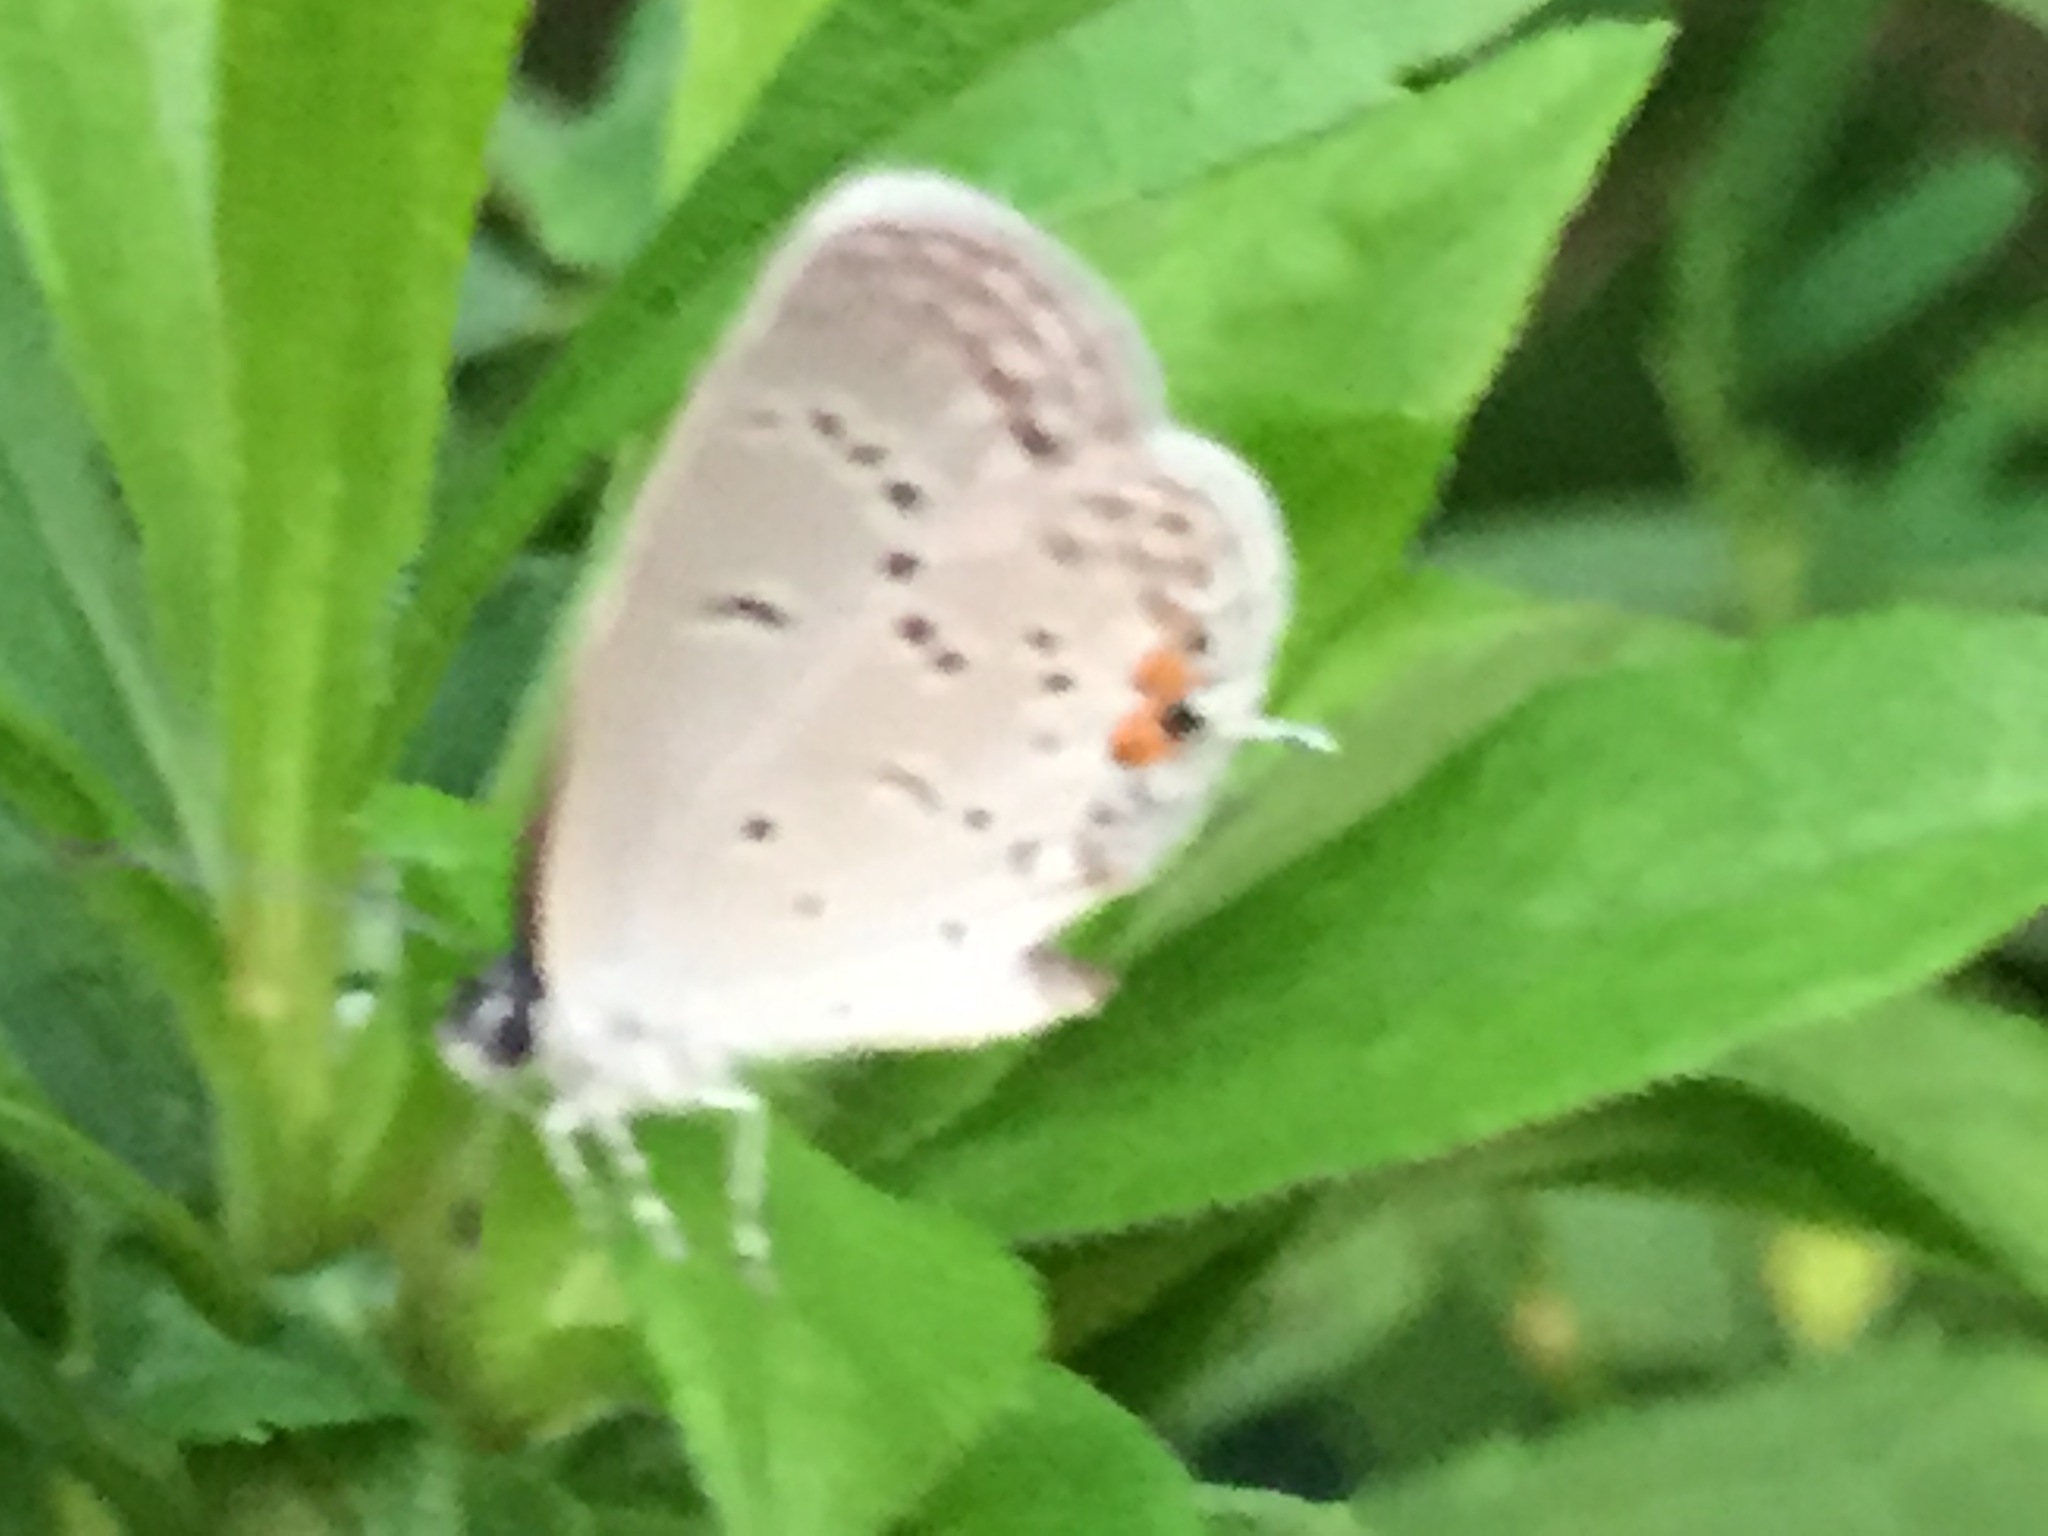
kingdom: Animalia
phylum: Arthropoda
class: Insecta
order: Lepidoptera
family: Lycaenidae
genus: Elkalyce
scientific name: Elkalyce comyntas
